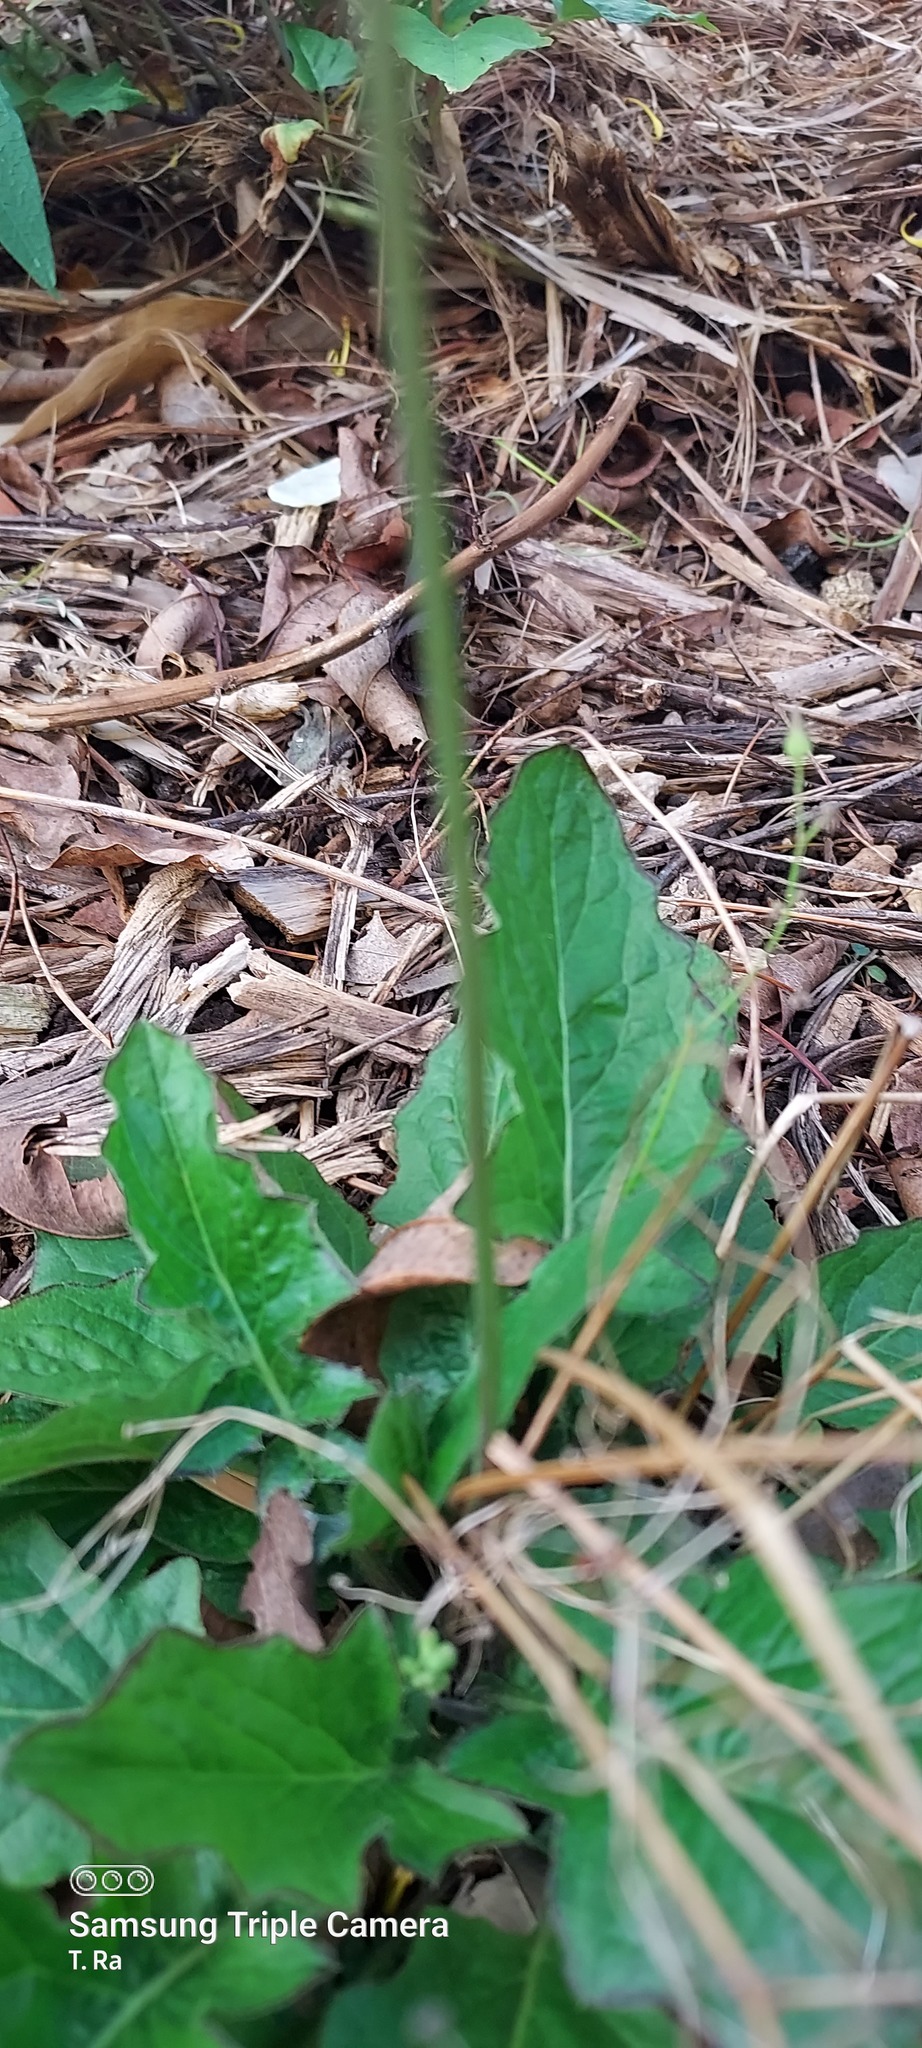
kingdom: Plantae
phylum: Tracheophyta
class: Magnoliopsida
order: Asterales
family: Asteraceae
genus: Youngia
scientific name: Youngia japonica
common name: Oriental false hawksbeard
